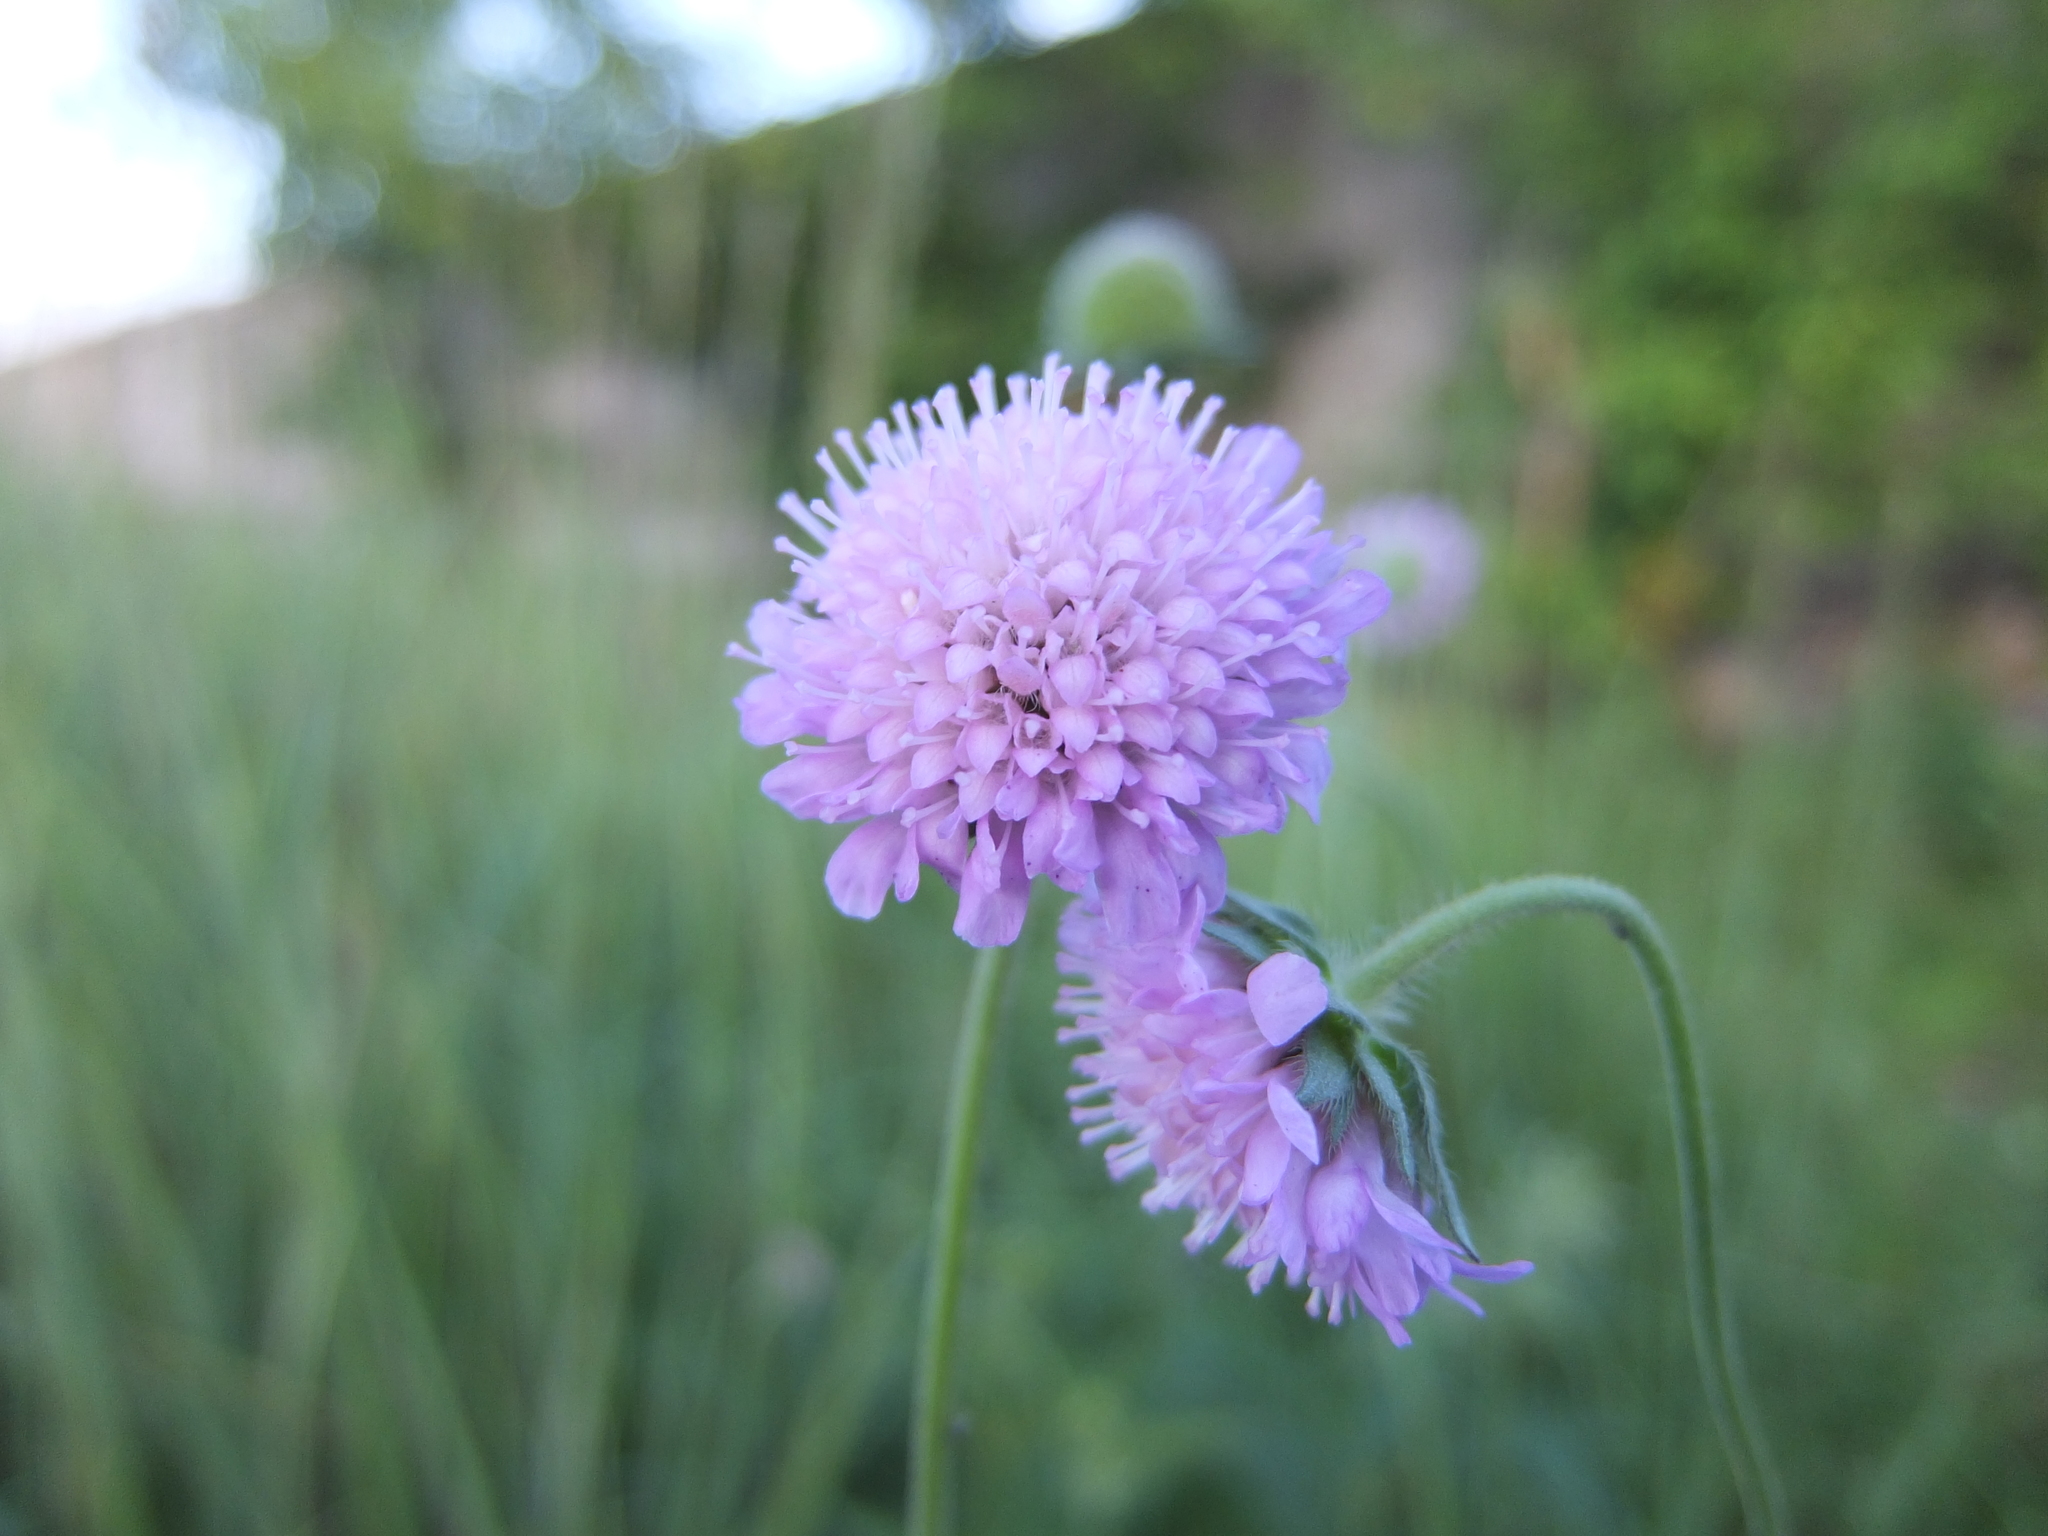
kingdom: Plantae
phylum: Tracheophyta
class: Magnoliopsida
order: Dipsacales
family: Caprifoliaceae
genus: Knautia
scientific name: Knautia arvensis
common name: Field scabiosa
